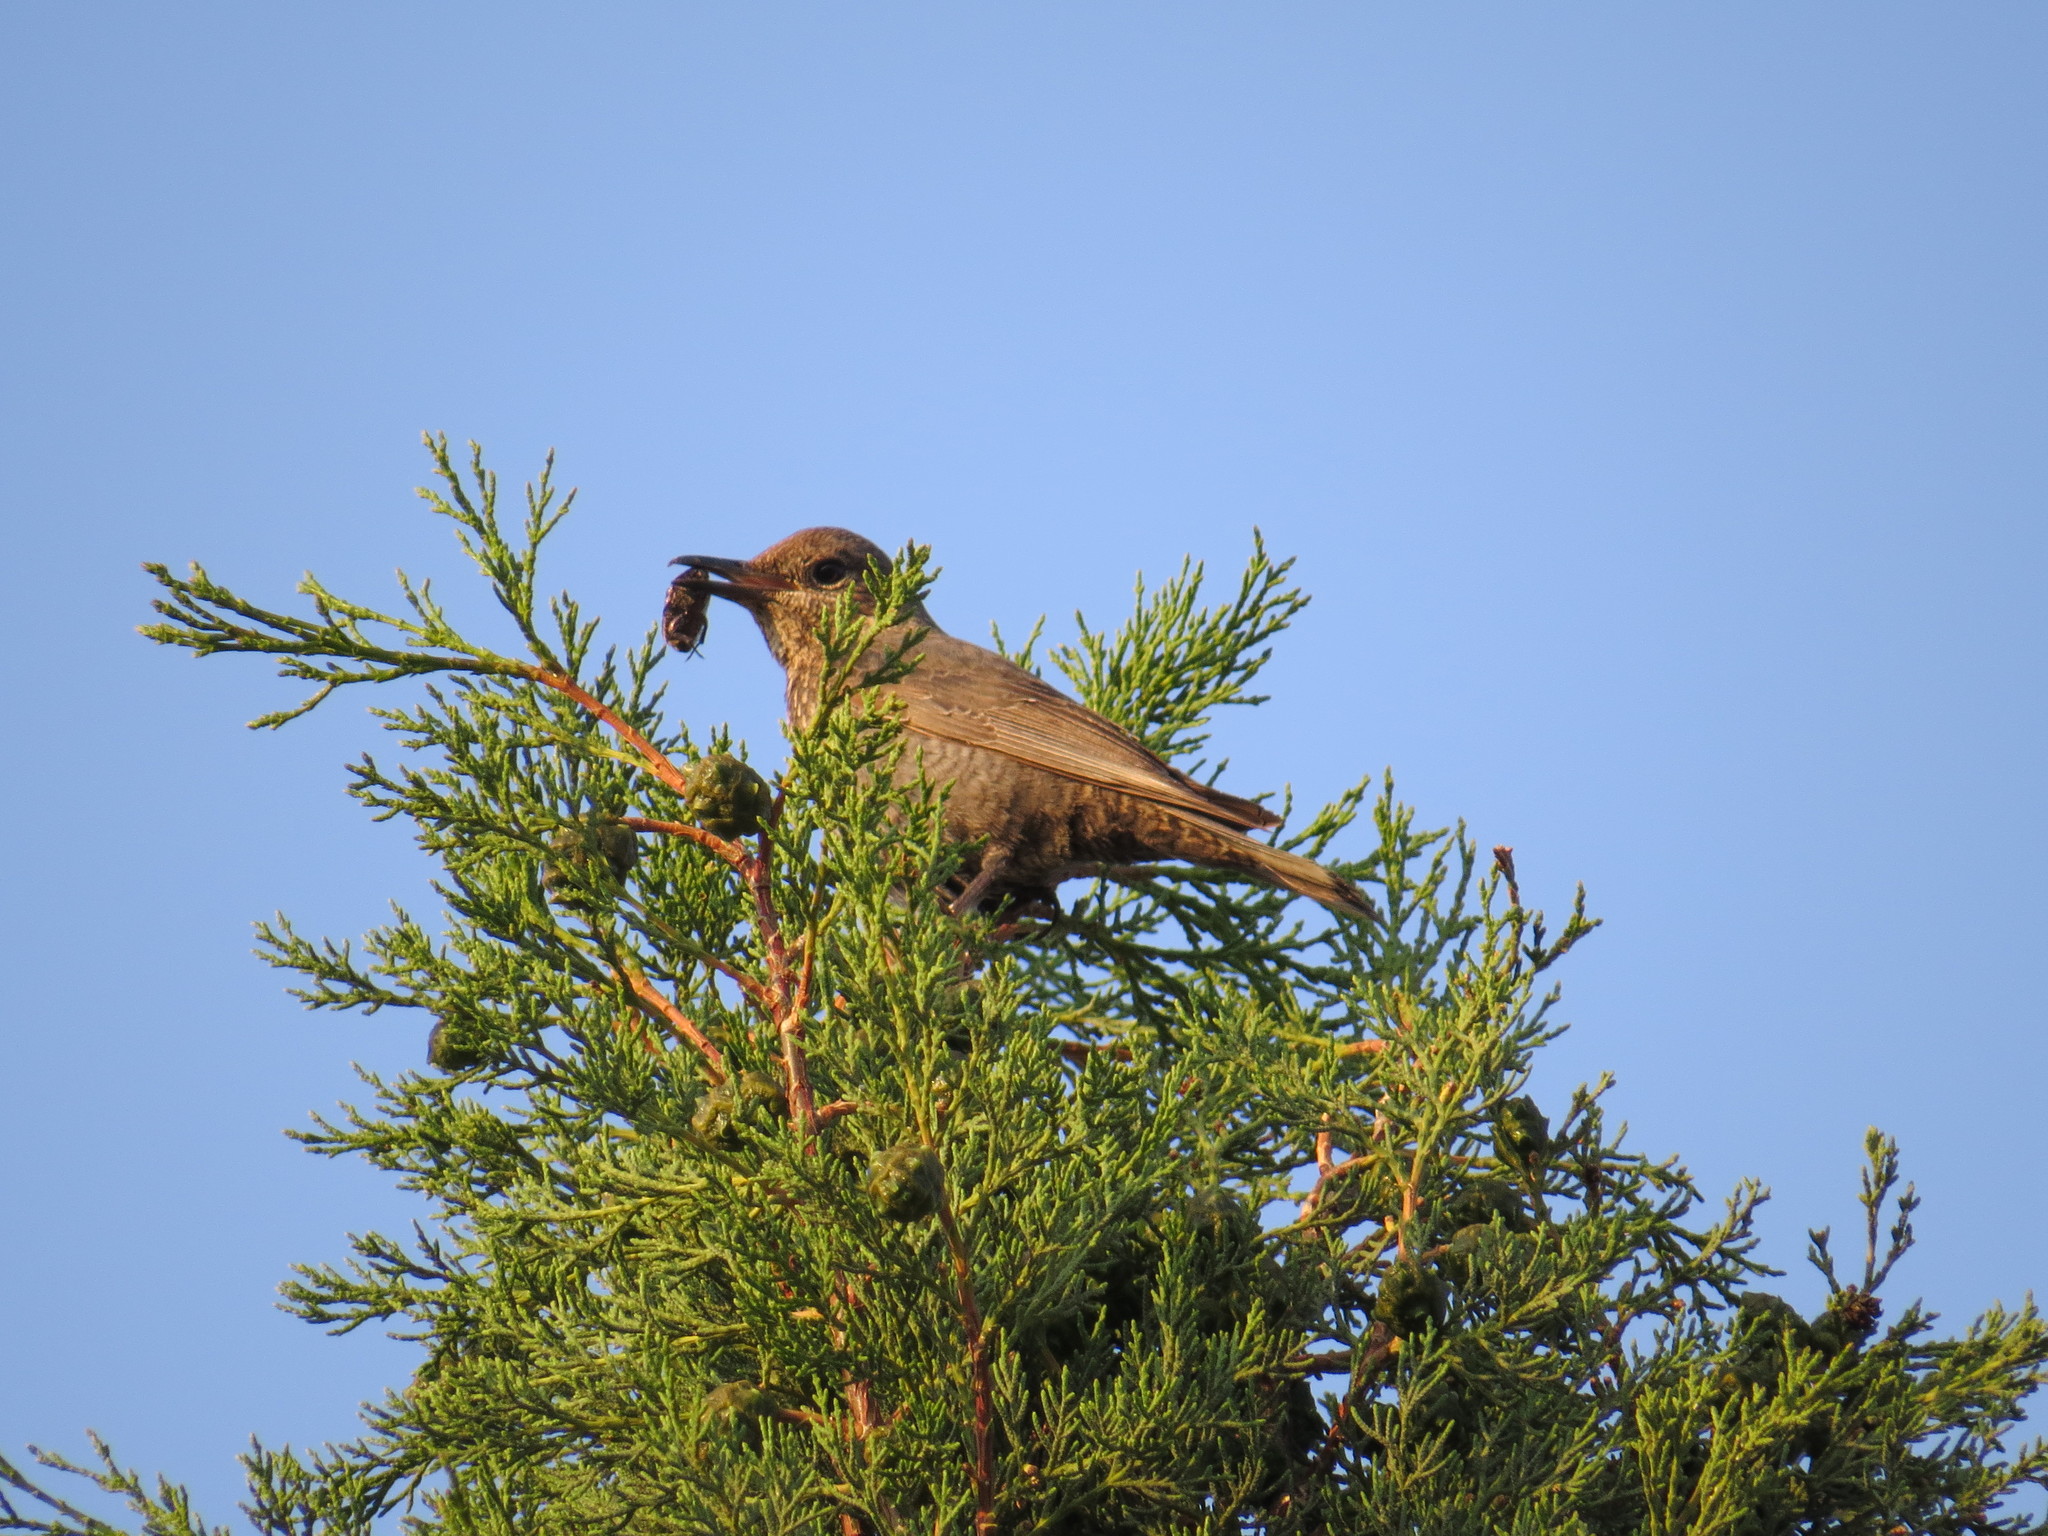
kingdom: Animalia
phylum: Chordata
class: Aves
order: Passeriformes
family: Muscicapidae
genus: Monticola
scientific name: Monticola solitarius
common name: Blue rock thrush
